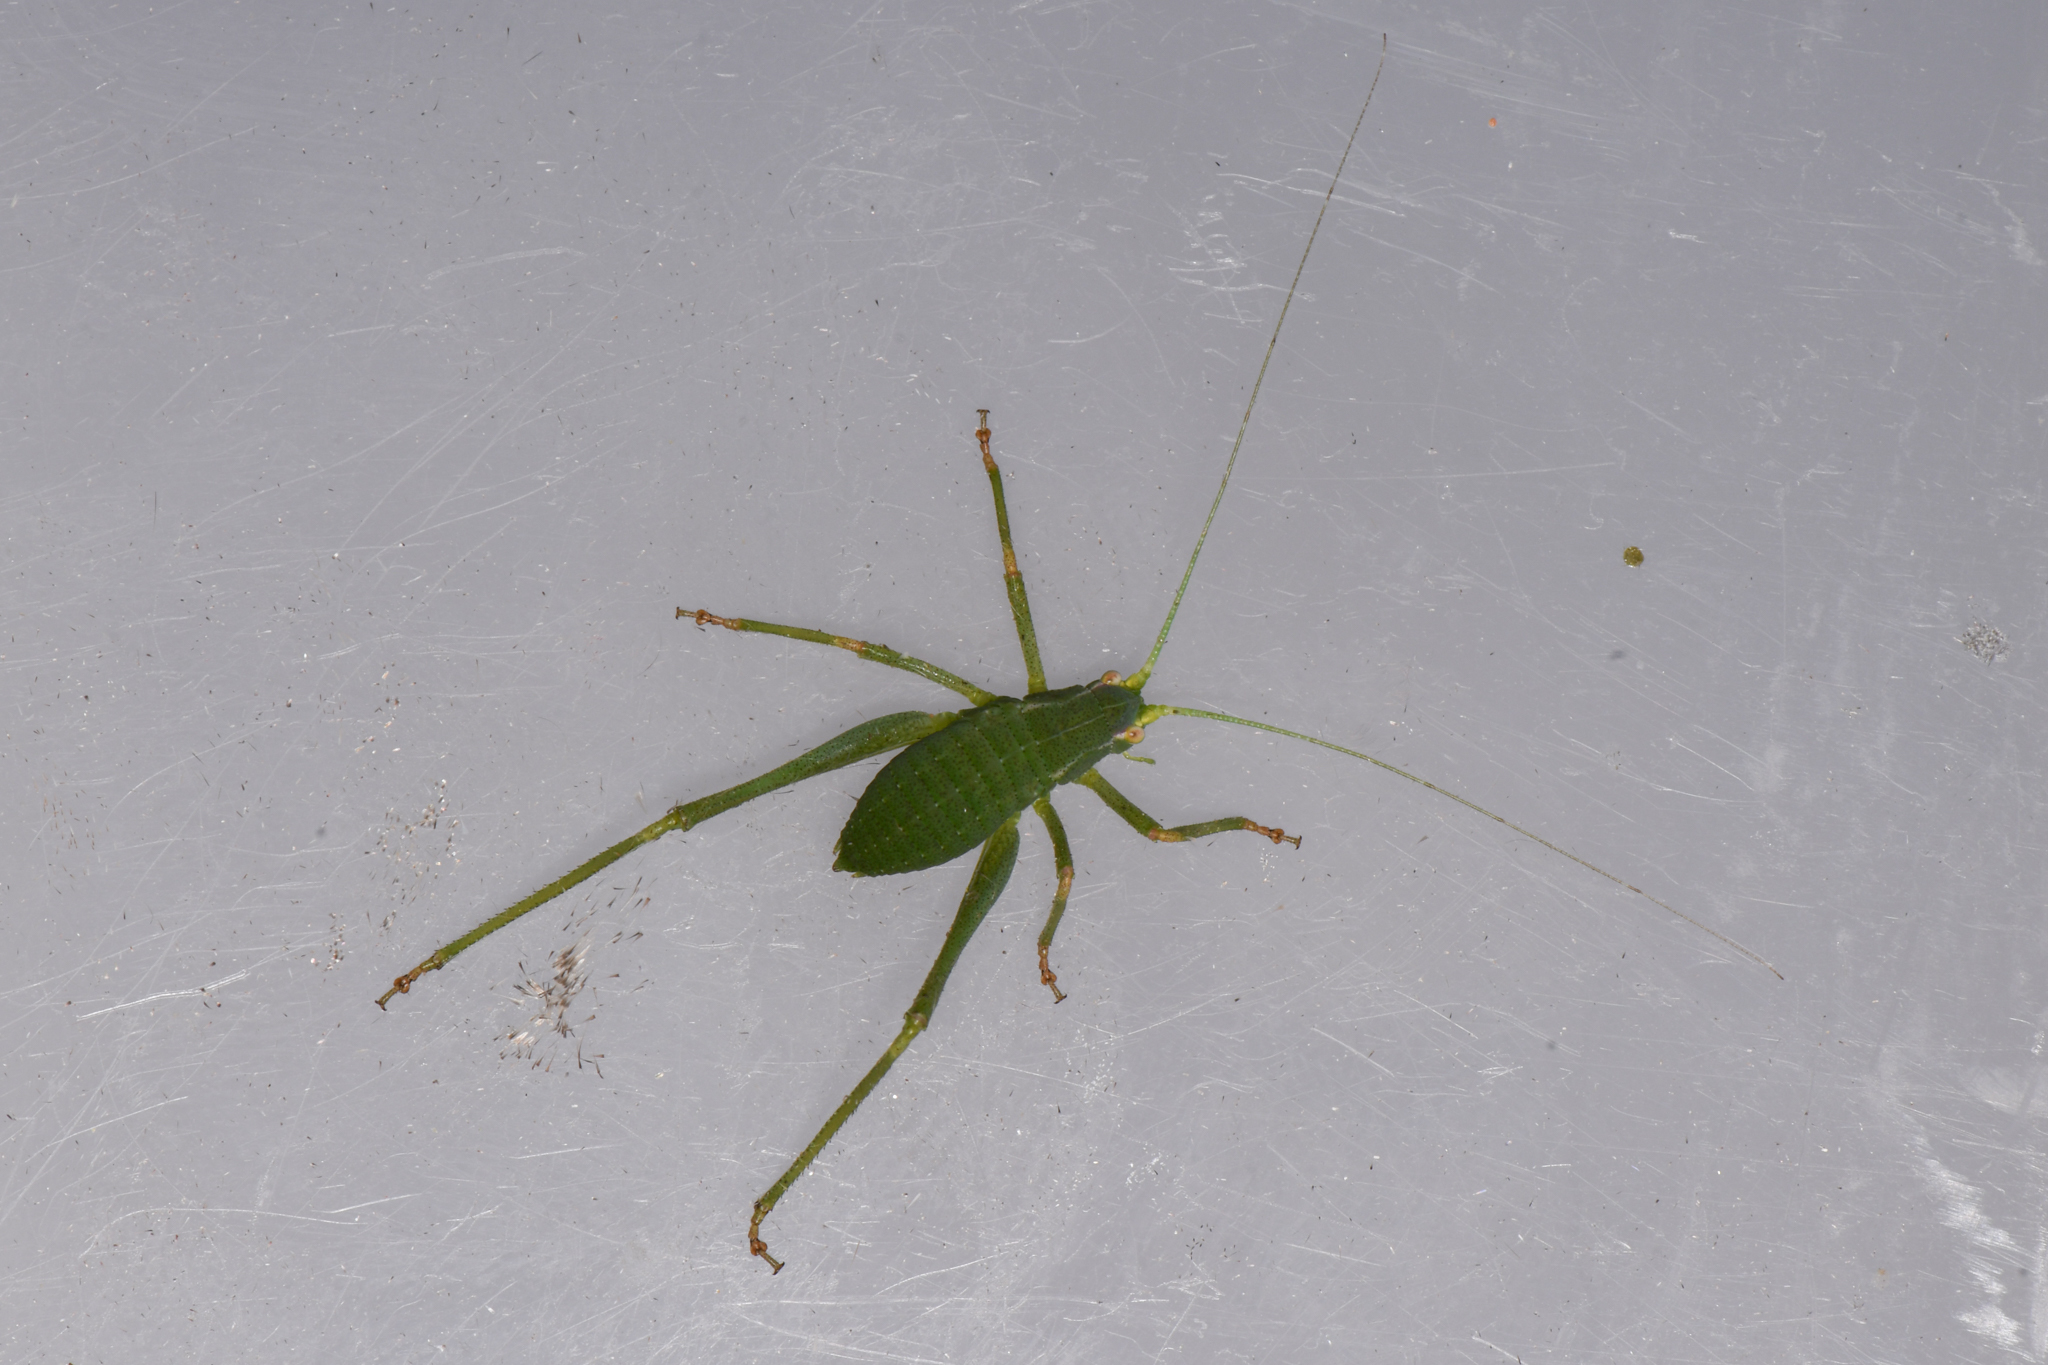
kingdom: Animalia
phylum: Arthropoda
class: Insecta
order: Orthoptera
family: Tettigoniidae
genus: Platylyra
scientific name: Platylyra californica
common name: Chaparral false katydid
